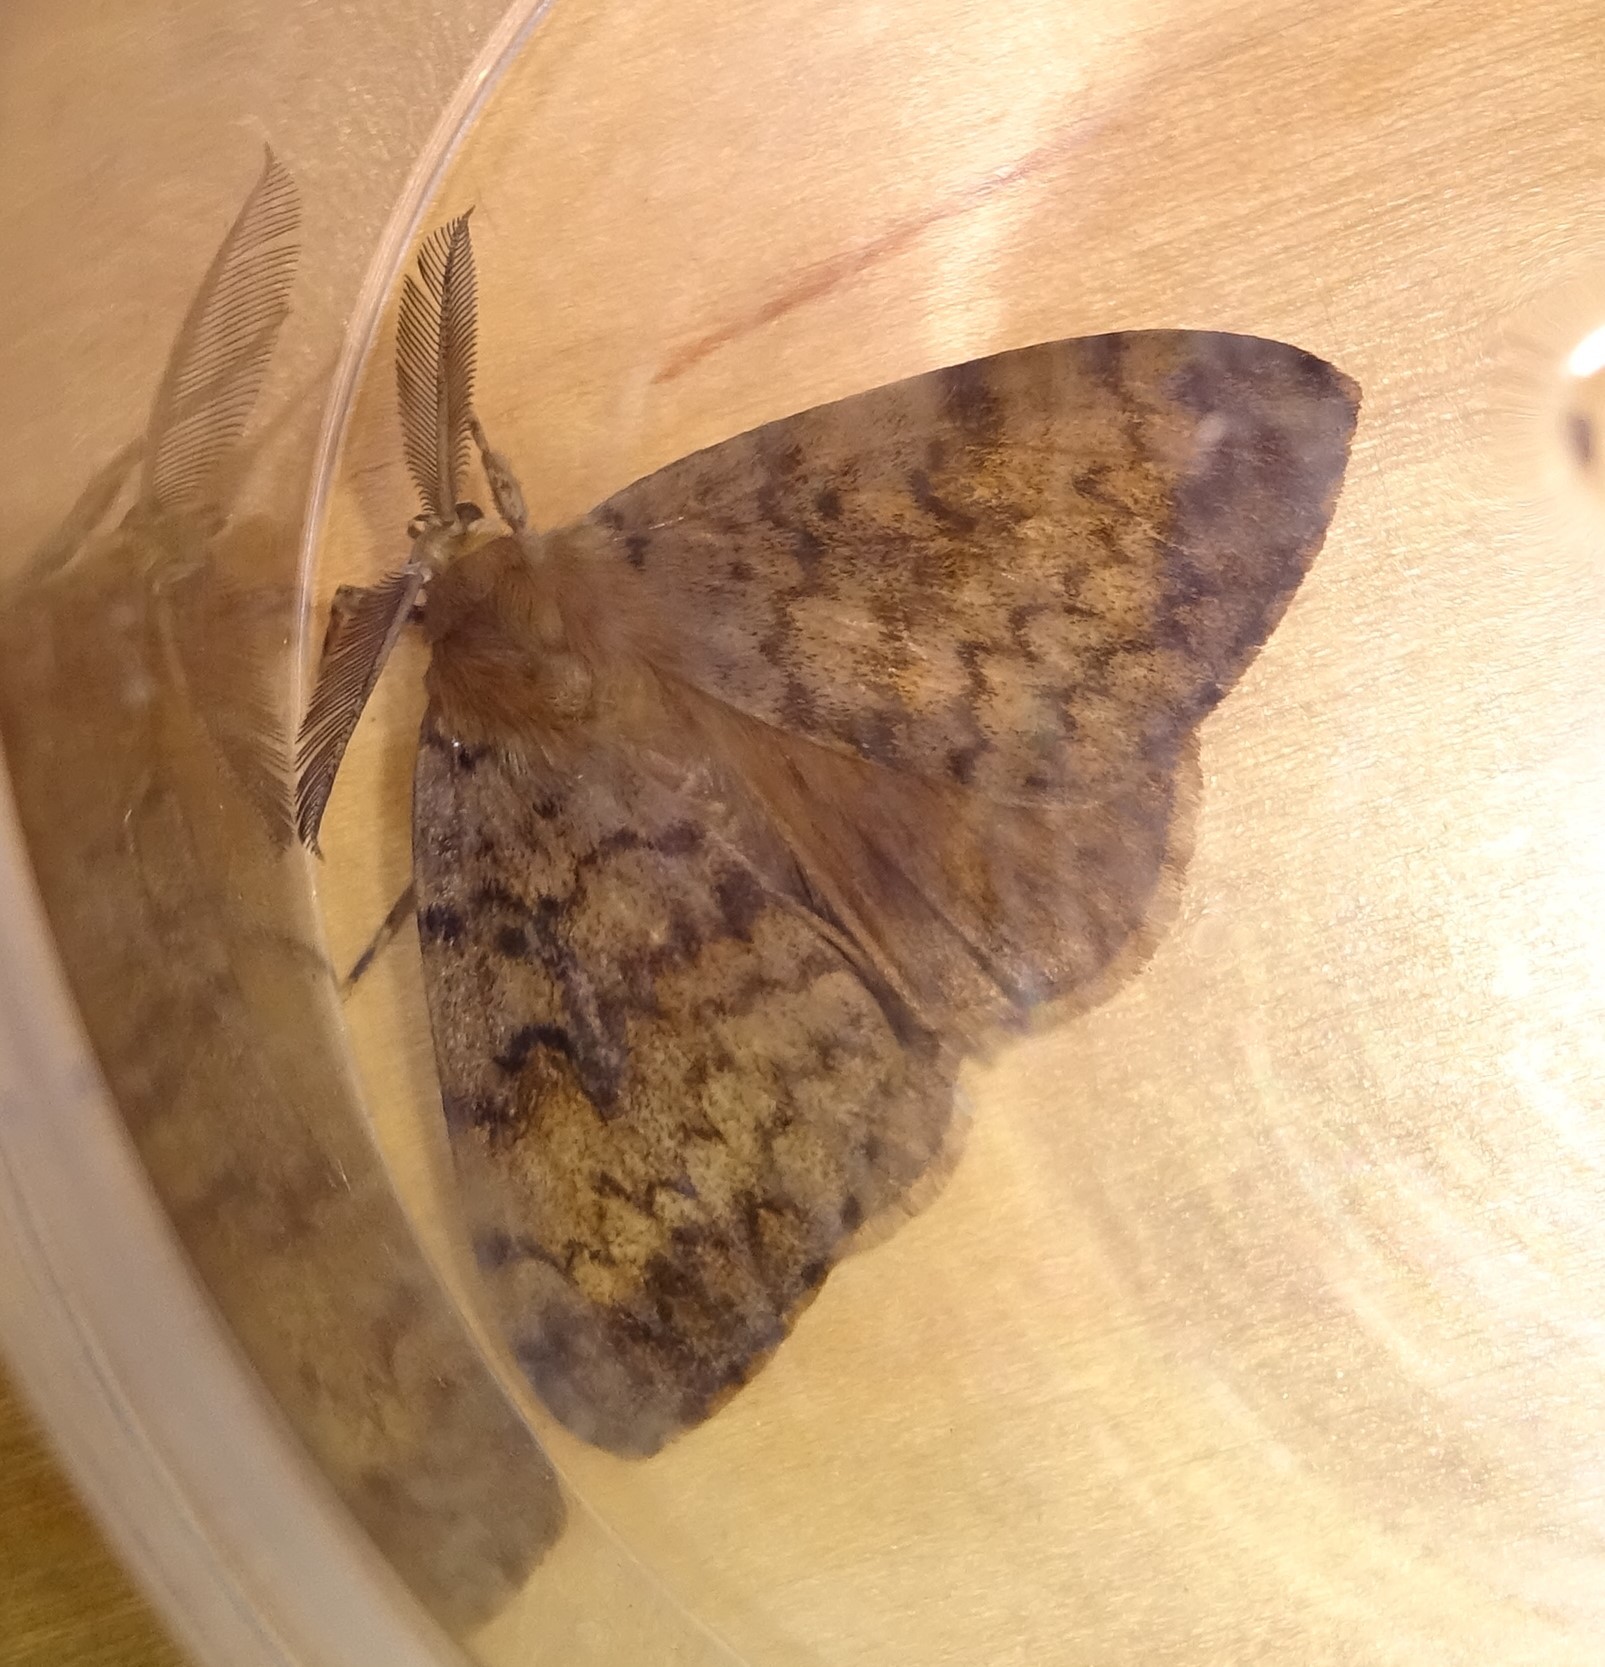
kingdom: Animalia
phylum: Arthropoda
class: Insecta
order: Lepidoptera
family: Erebidae
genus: Lymantria
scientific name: Lymantria dispar
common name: Gypsy moth
